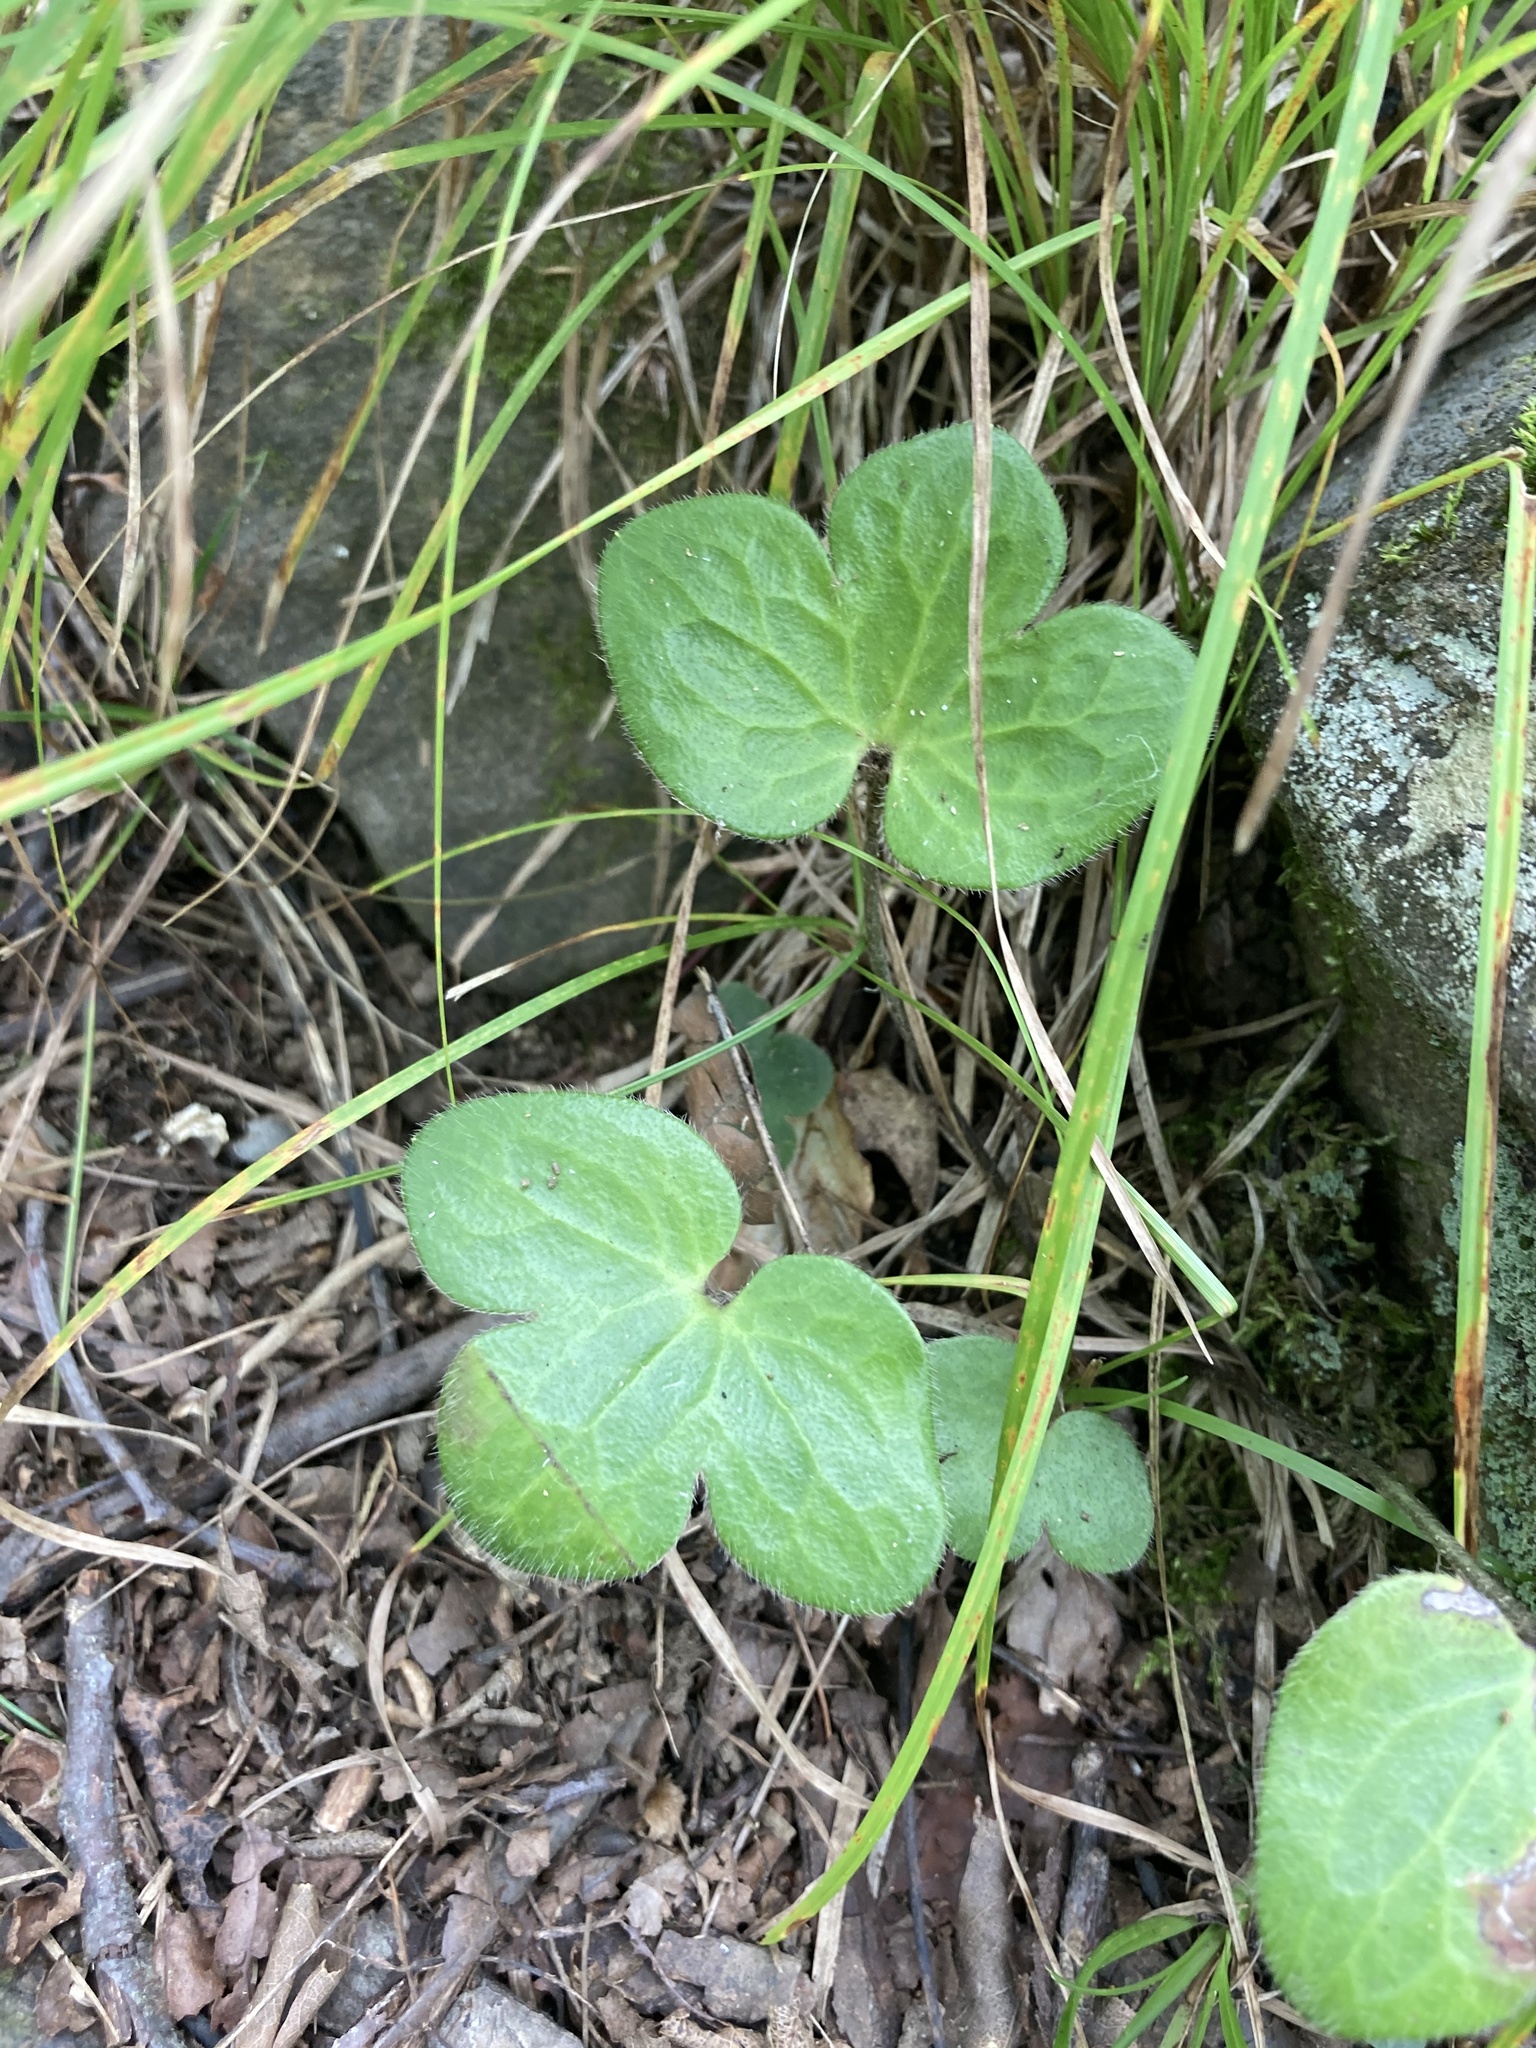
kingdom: Plantae
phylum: Tracheophyta
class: Magnoliopsida
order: Ranunculales
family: Ranunculaceae
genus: Hepatica
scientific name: Hepatica americana
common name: American hepatica
